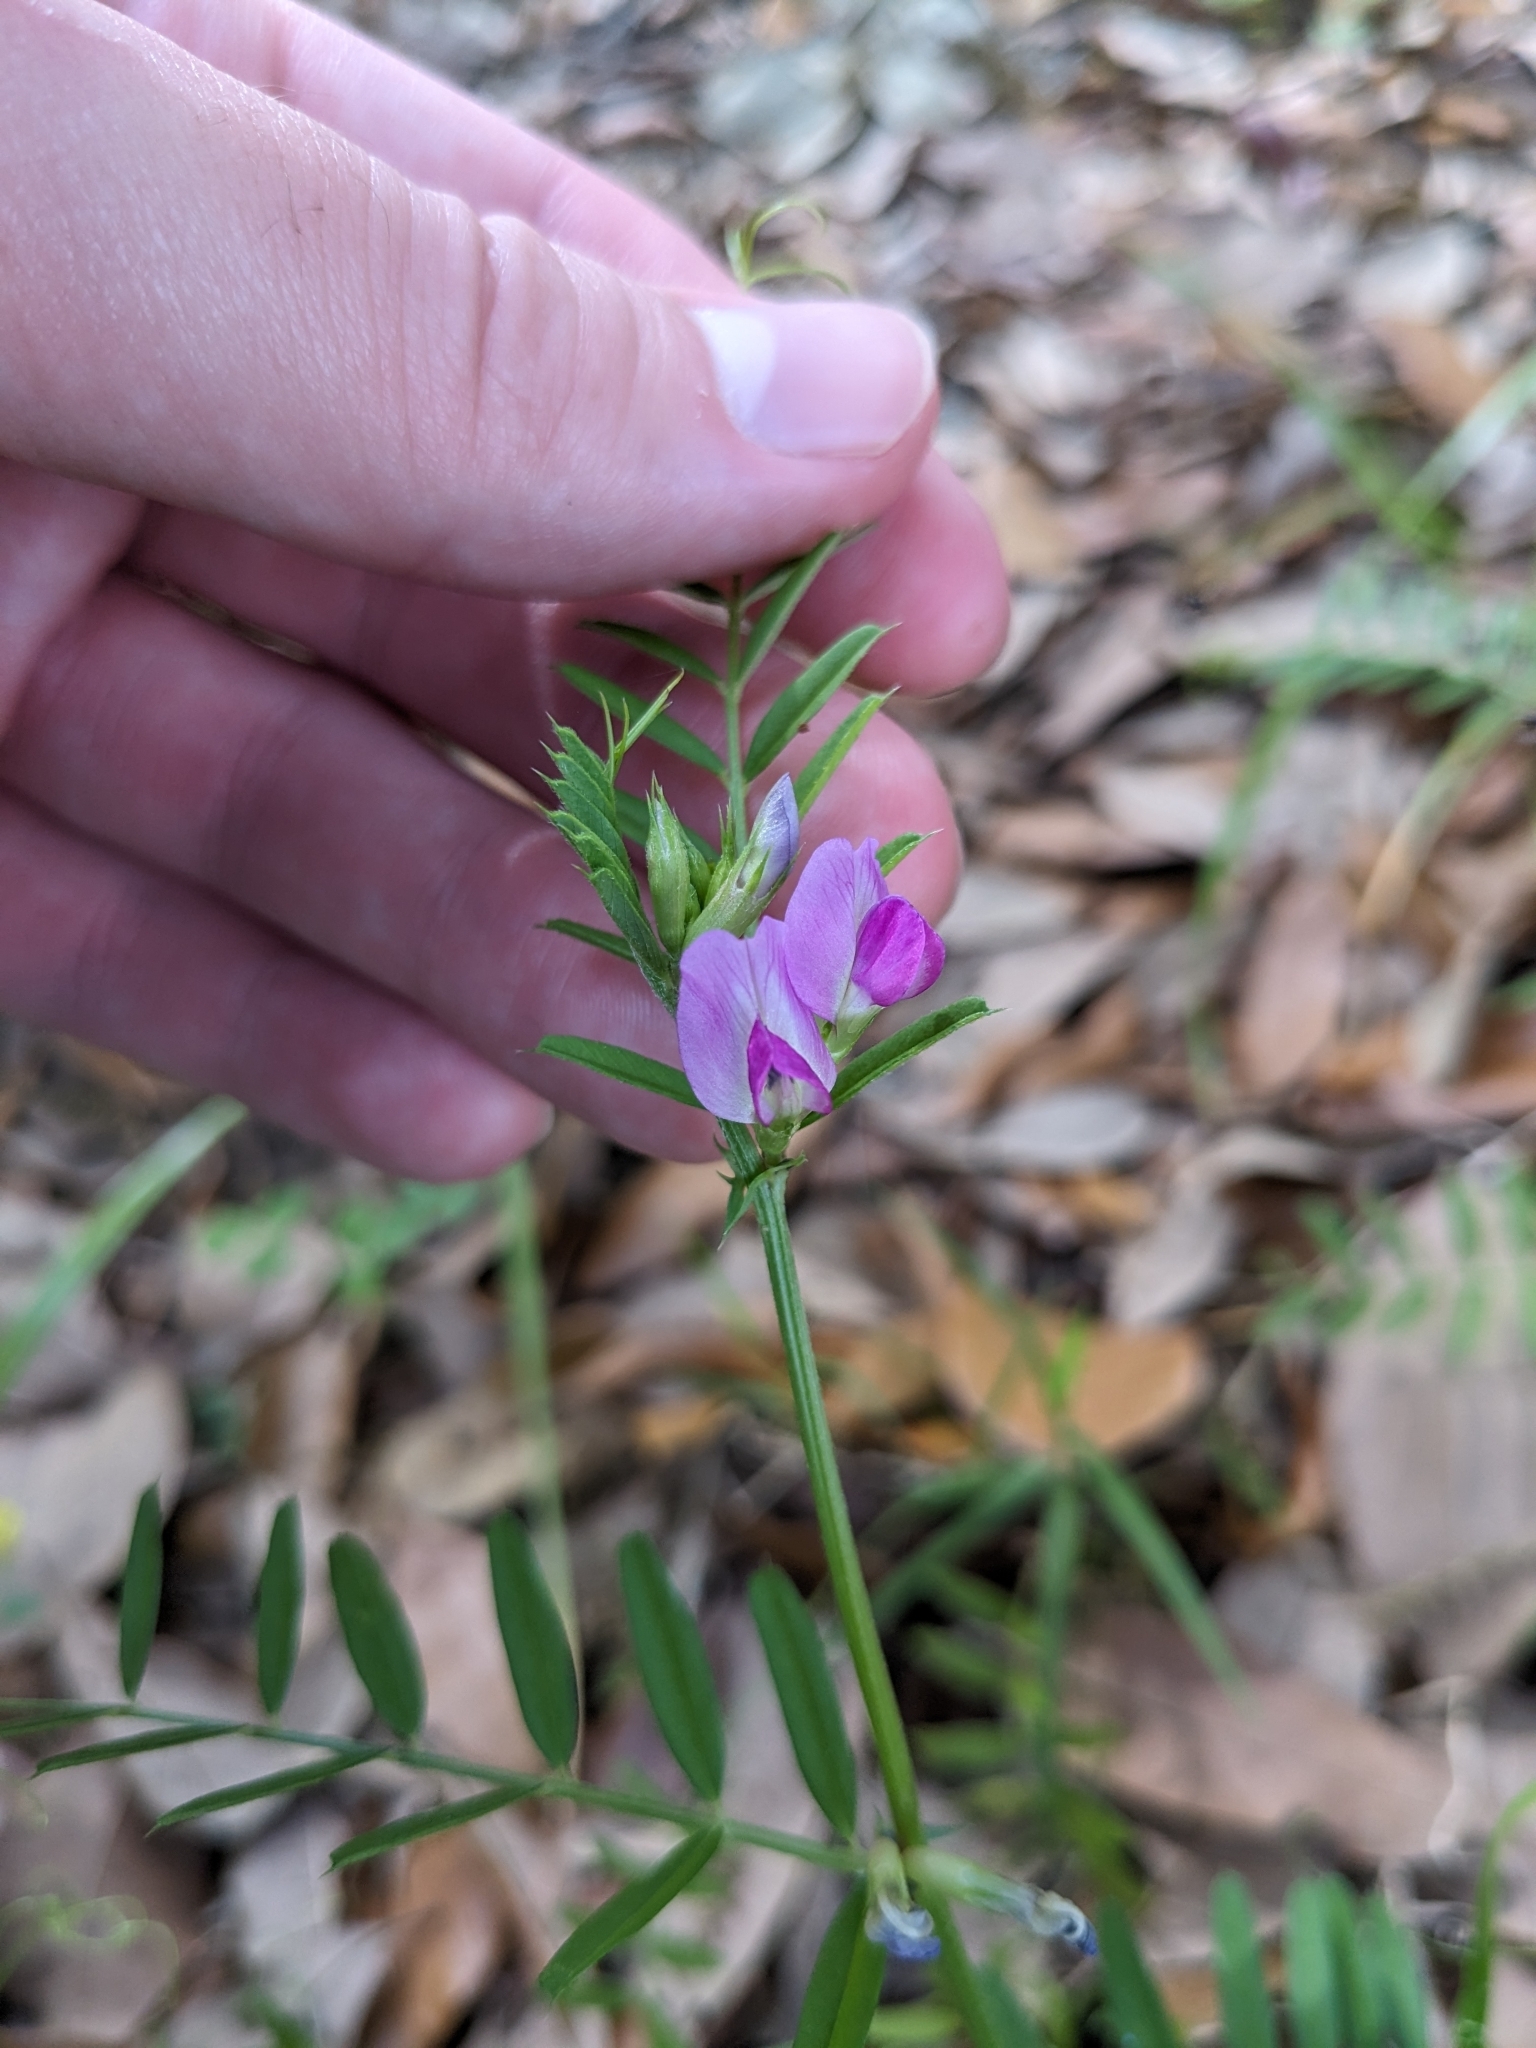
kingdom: Plantae
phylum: Tracheophyta
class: Magnoliopsida
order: Fabales
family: Fabaceae
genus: Vicia
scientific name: Vicia sativa
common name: Garden vetch
